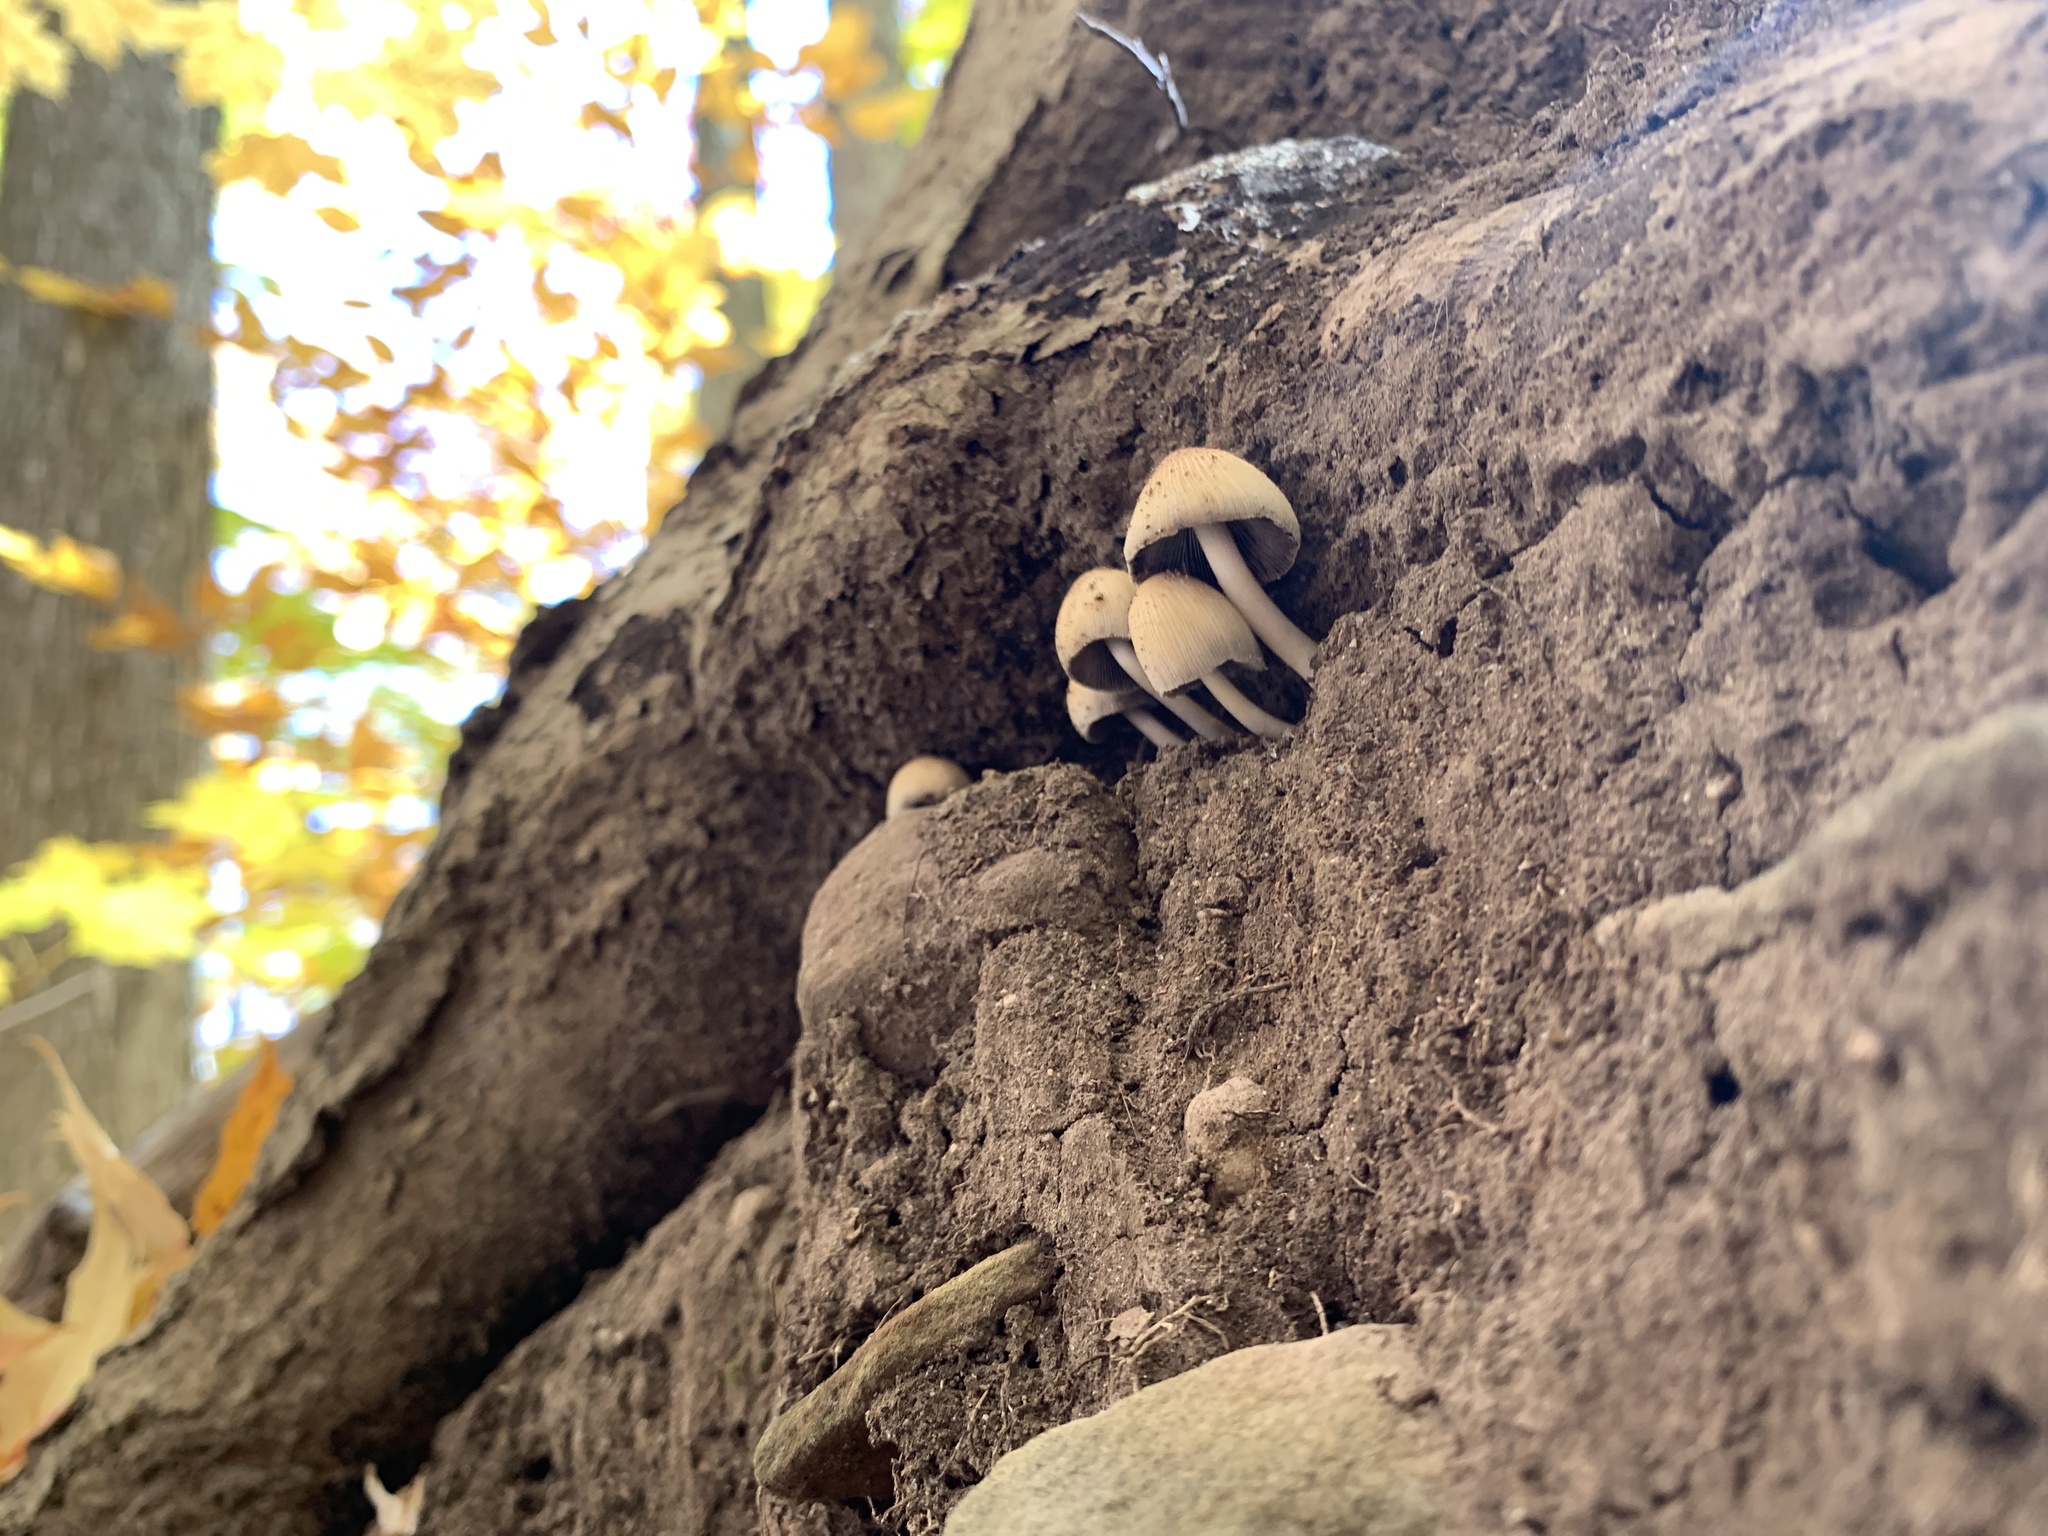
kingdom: Fungi
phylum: Basidiomycota
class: Agaricomycetes
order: Agaricales
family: Psathyrellaceae
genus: Coprinellus
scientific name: Coprinellus micaceus
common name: Glistening ink-cap
